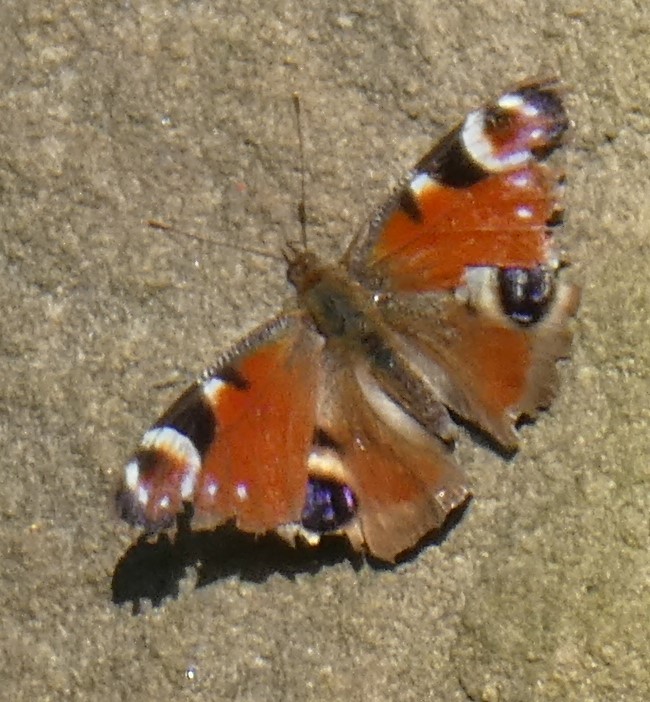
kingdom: Animalia
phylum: Arthropoda
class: Insecta
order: Lepidoptera
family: Nymphalidae
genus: Aglais
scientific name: Aglais io
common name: Peacock
